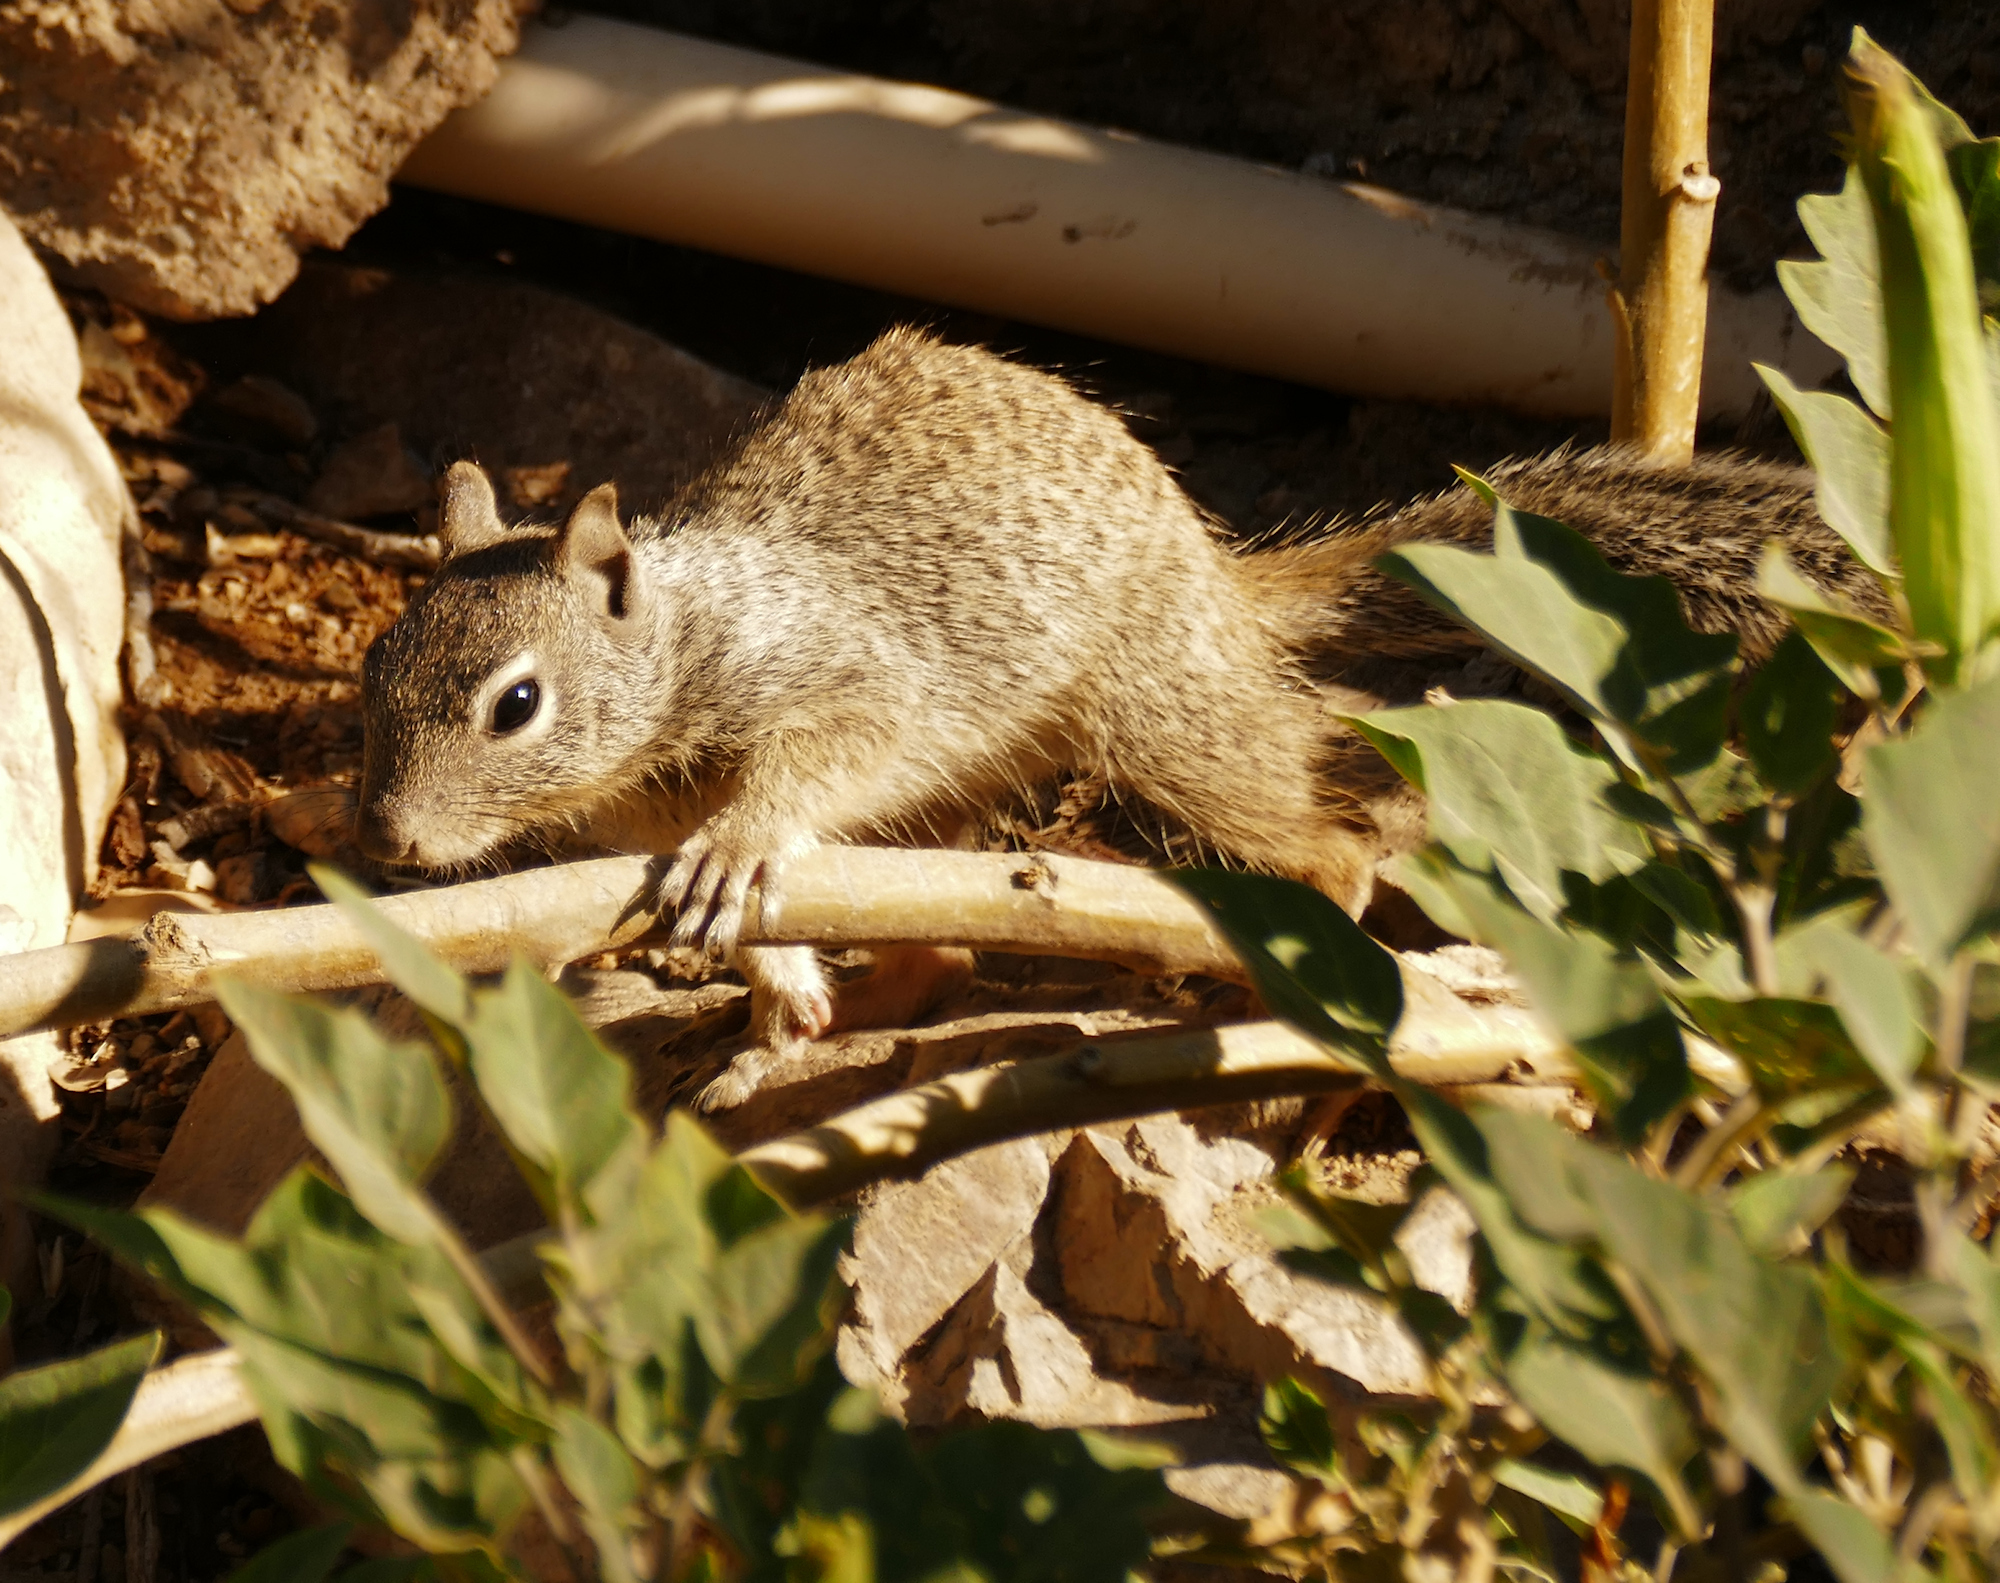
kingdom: Animalia
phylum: Chordata
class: Mammalia
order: Rodentia
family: Sciuridae
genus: Otospermophilus
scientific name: Otospermophilus variegatus
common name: Rock squirrel
